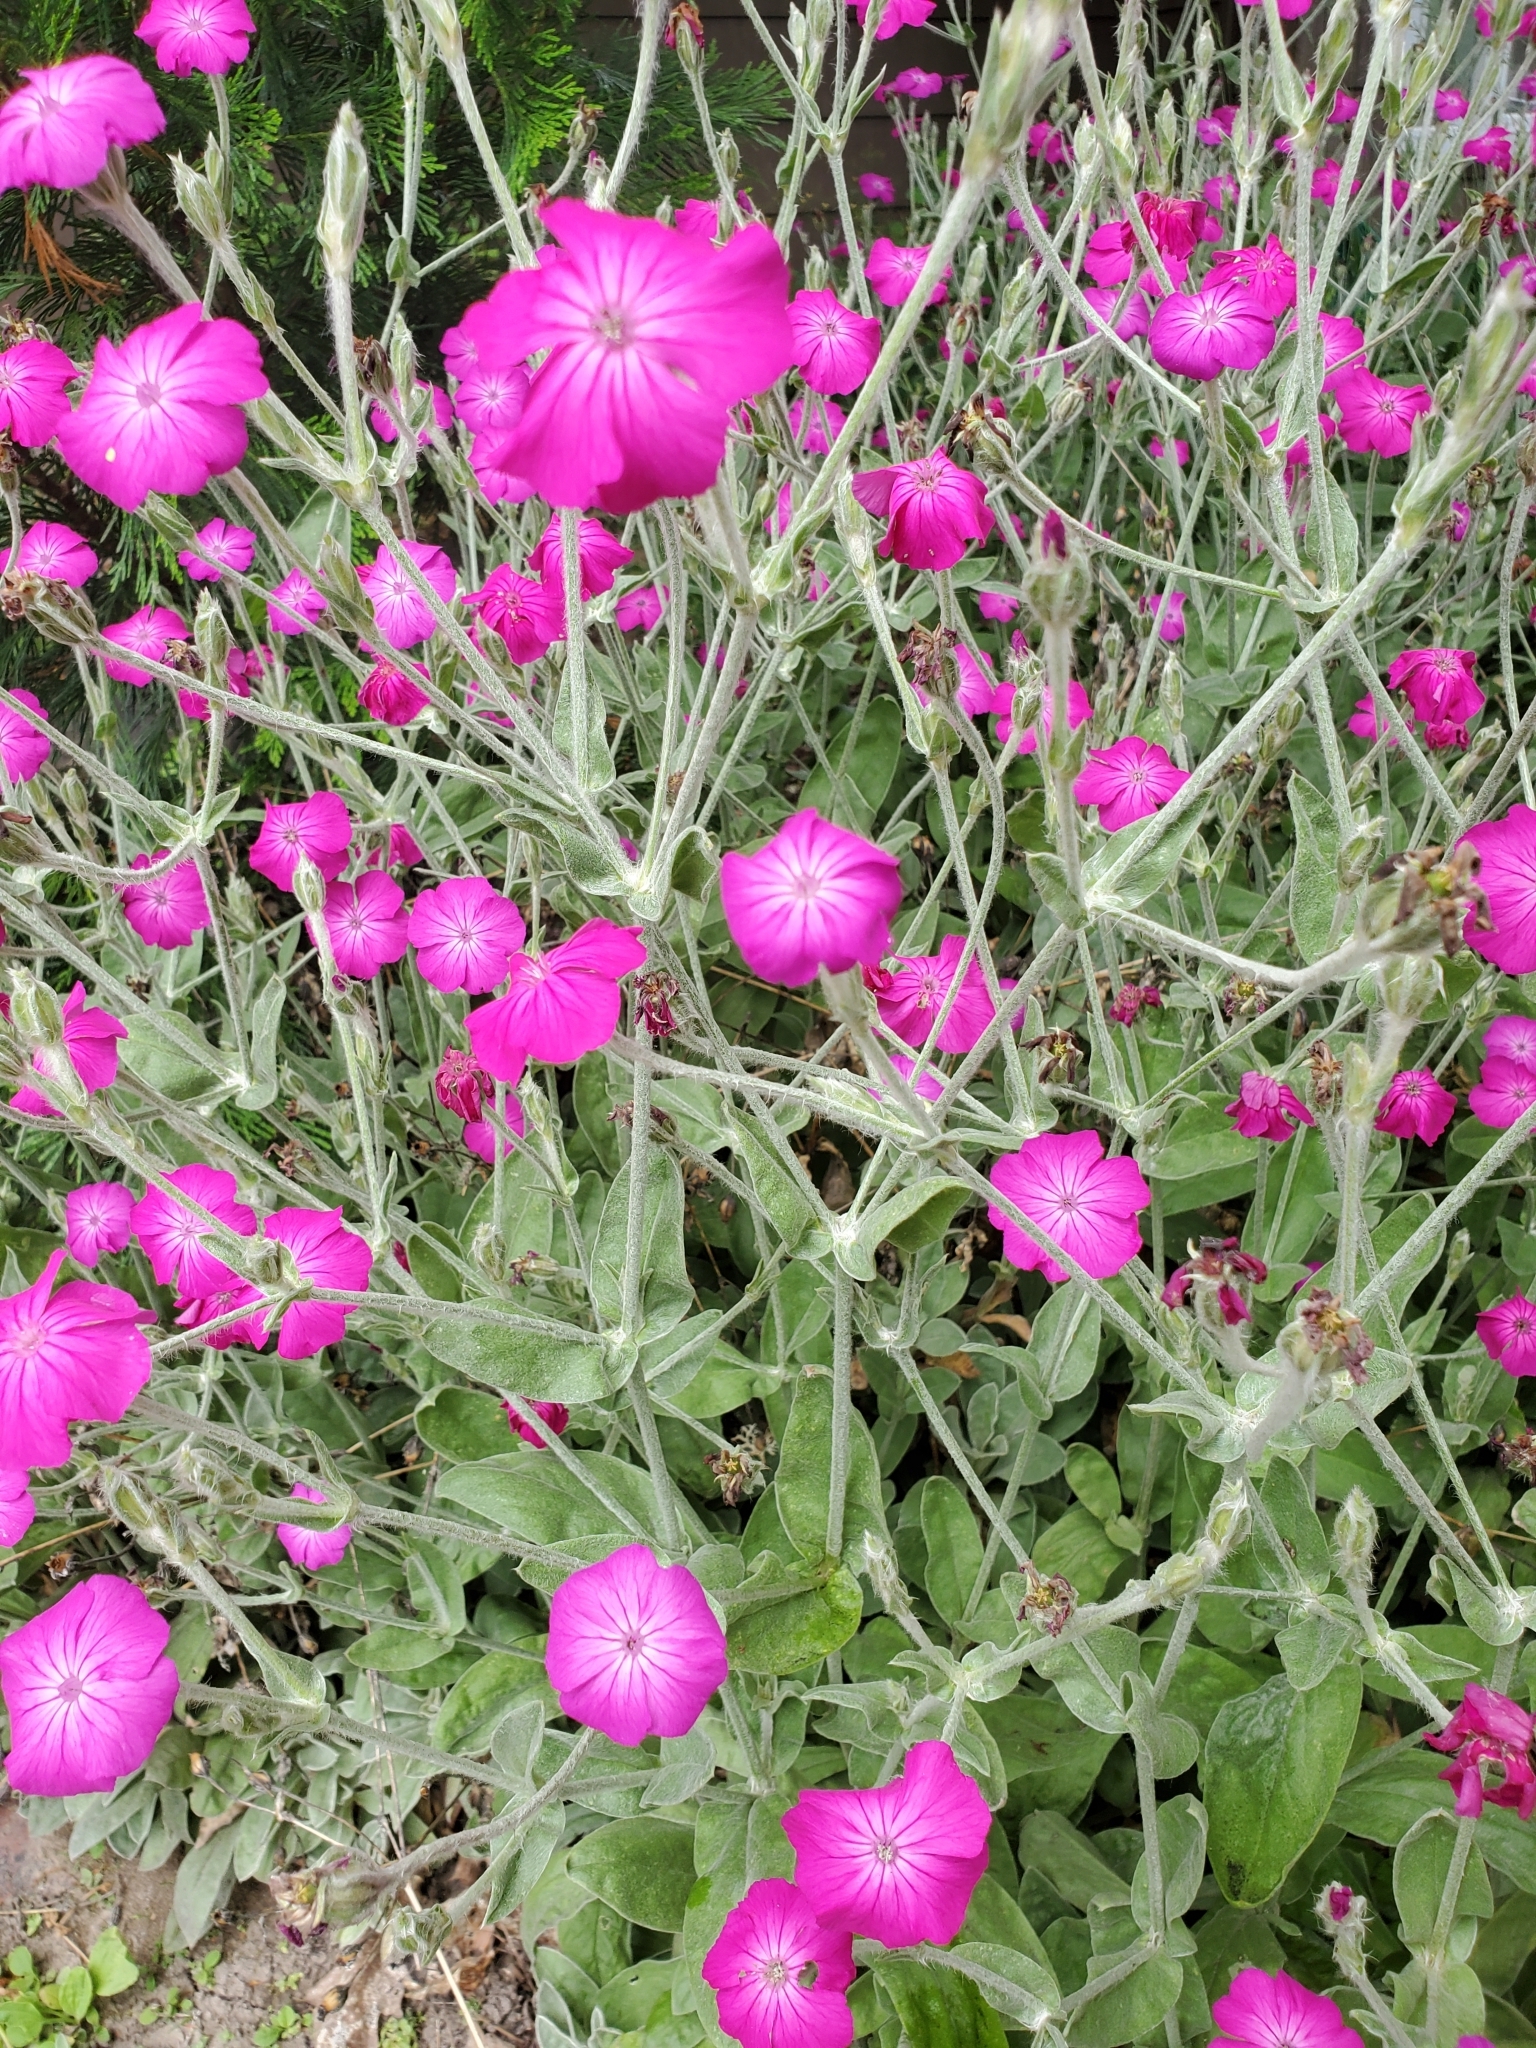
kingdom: Plantae
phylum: Tracheophyta
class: Magnoliopsida
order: Caryophyllales
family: Caryophyllaceae
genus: Silene
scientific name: Silene coronaria
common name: Rose campion
